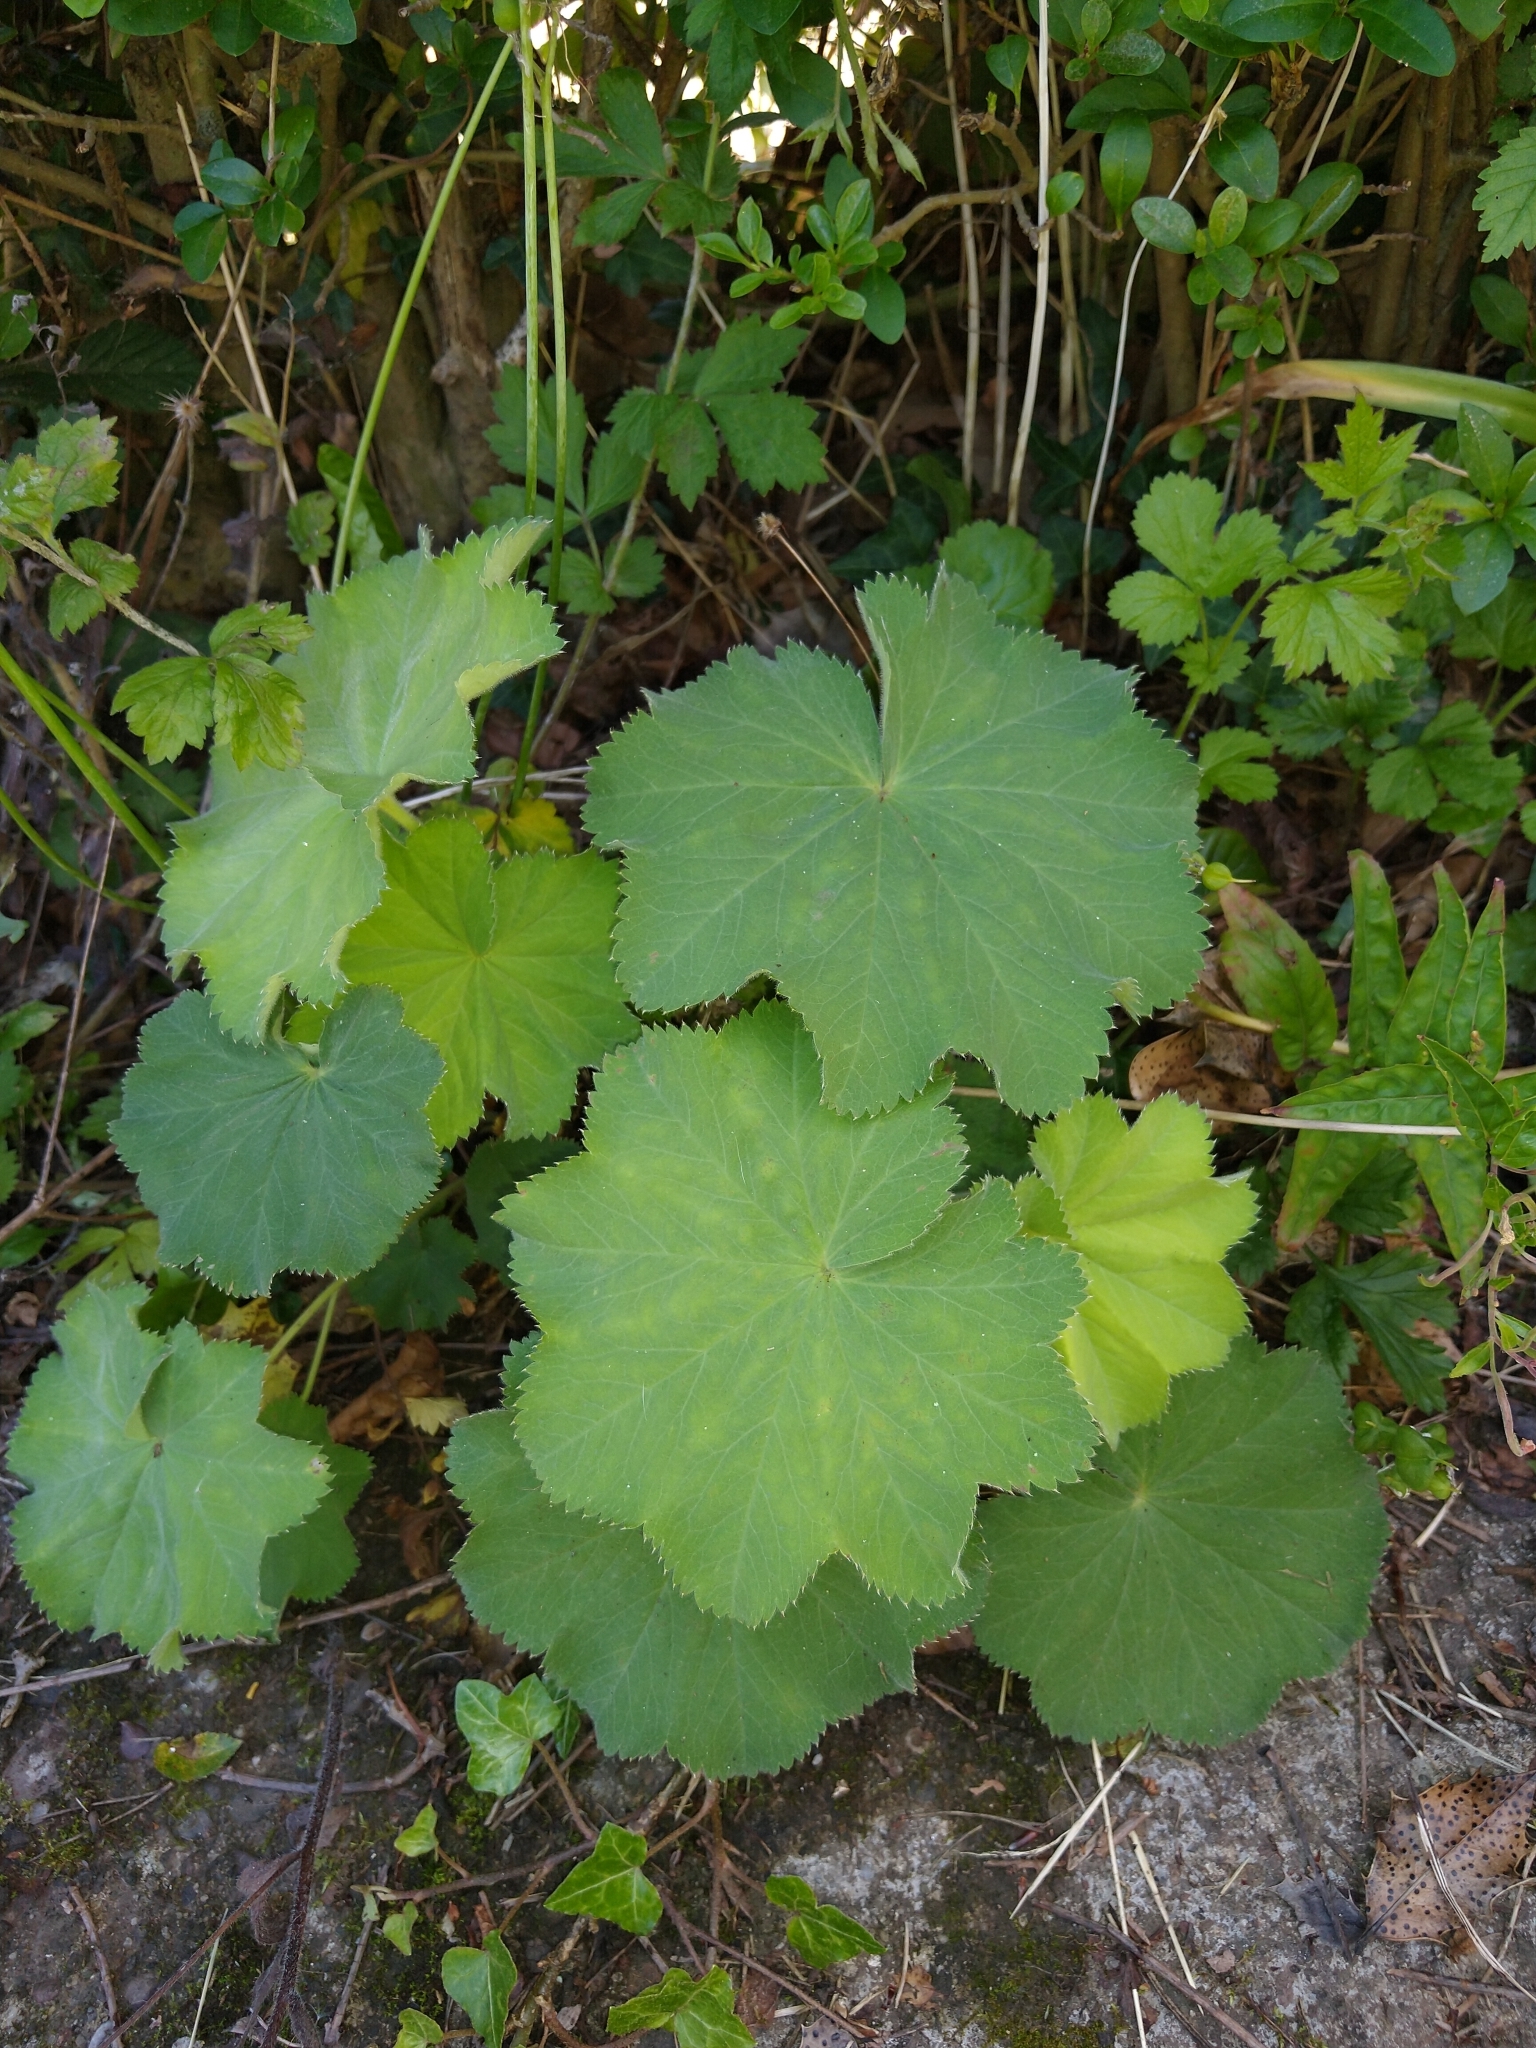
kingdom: Plantae
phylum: Tracheophyta
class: Magnoliopsida
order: Rosales
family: Rosaceae
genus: Alchemilla
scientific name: Alchemilla mollis
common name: Lady's-mantle
